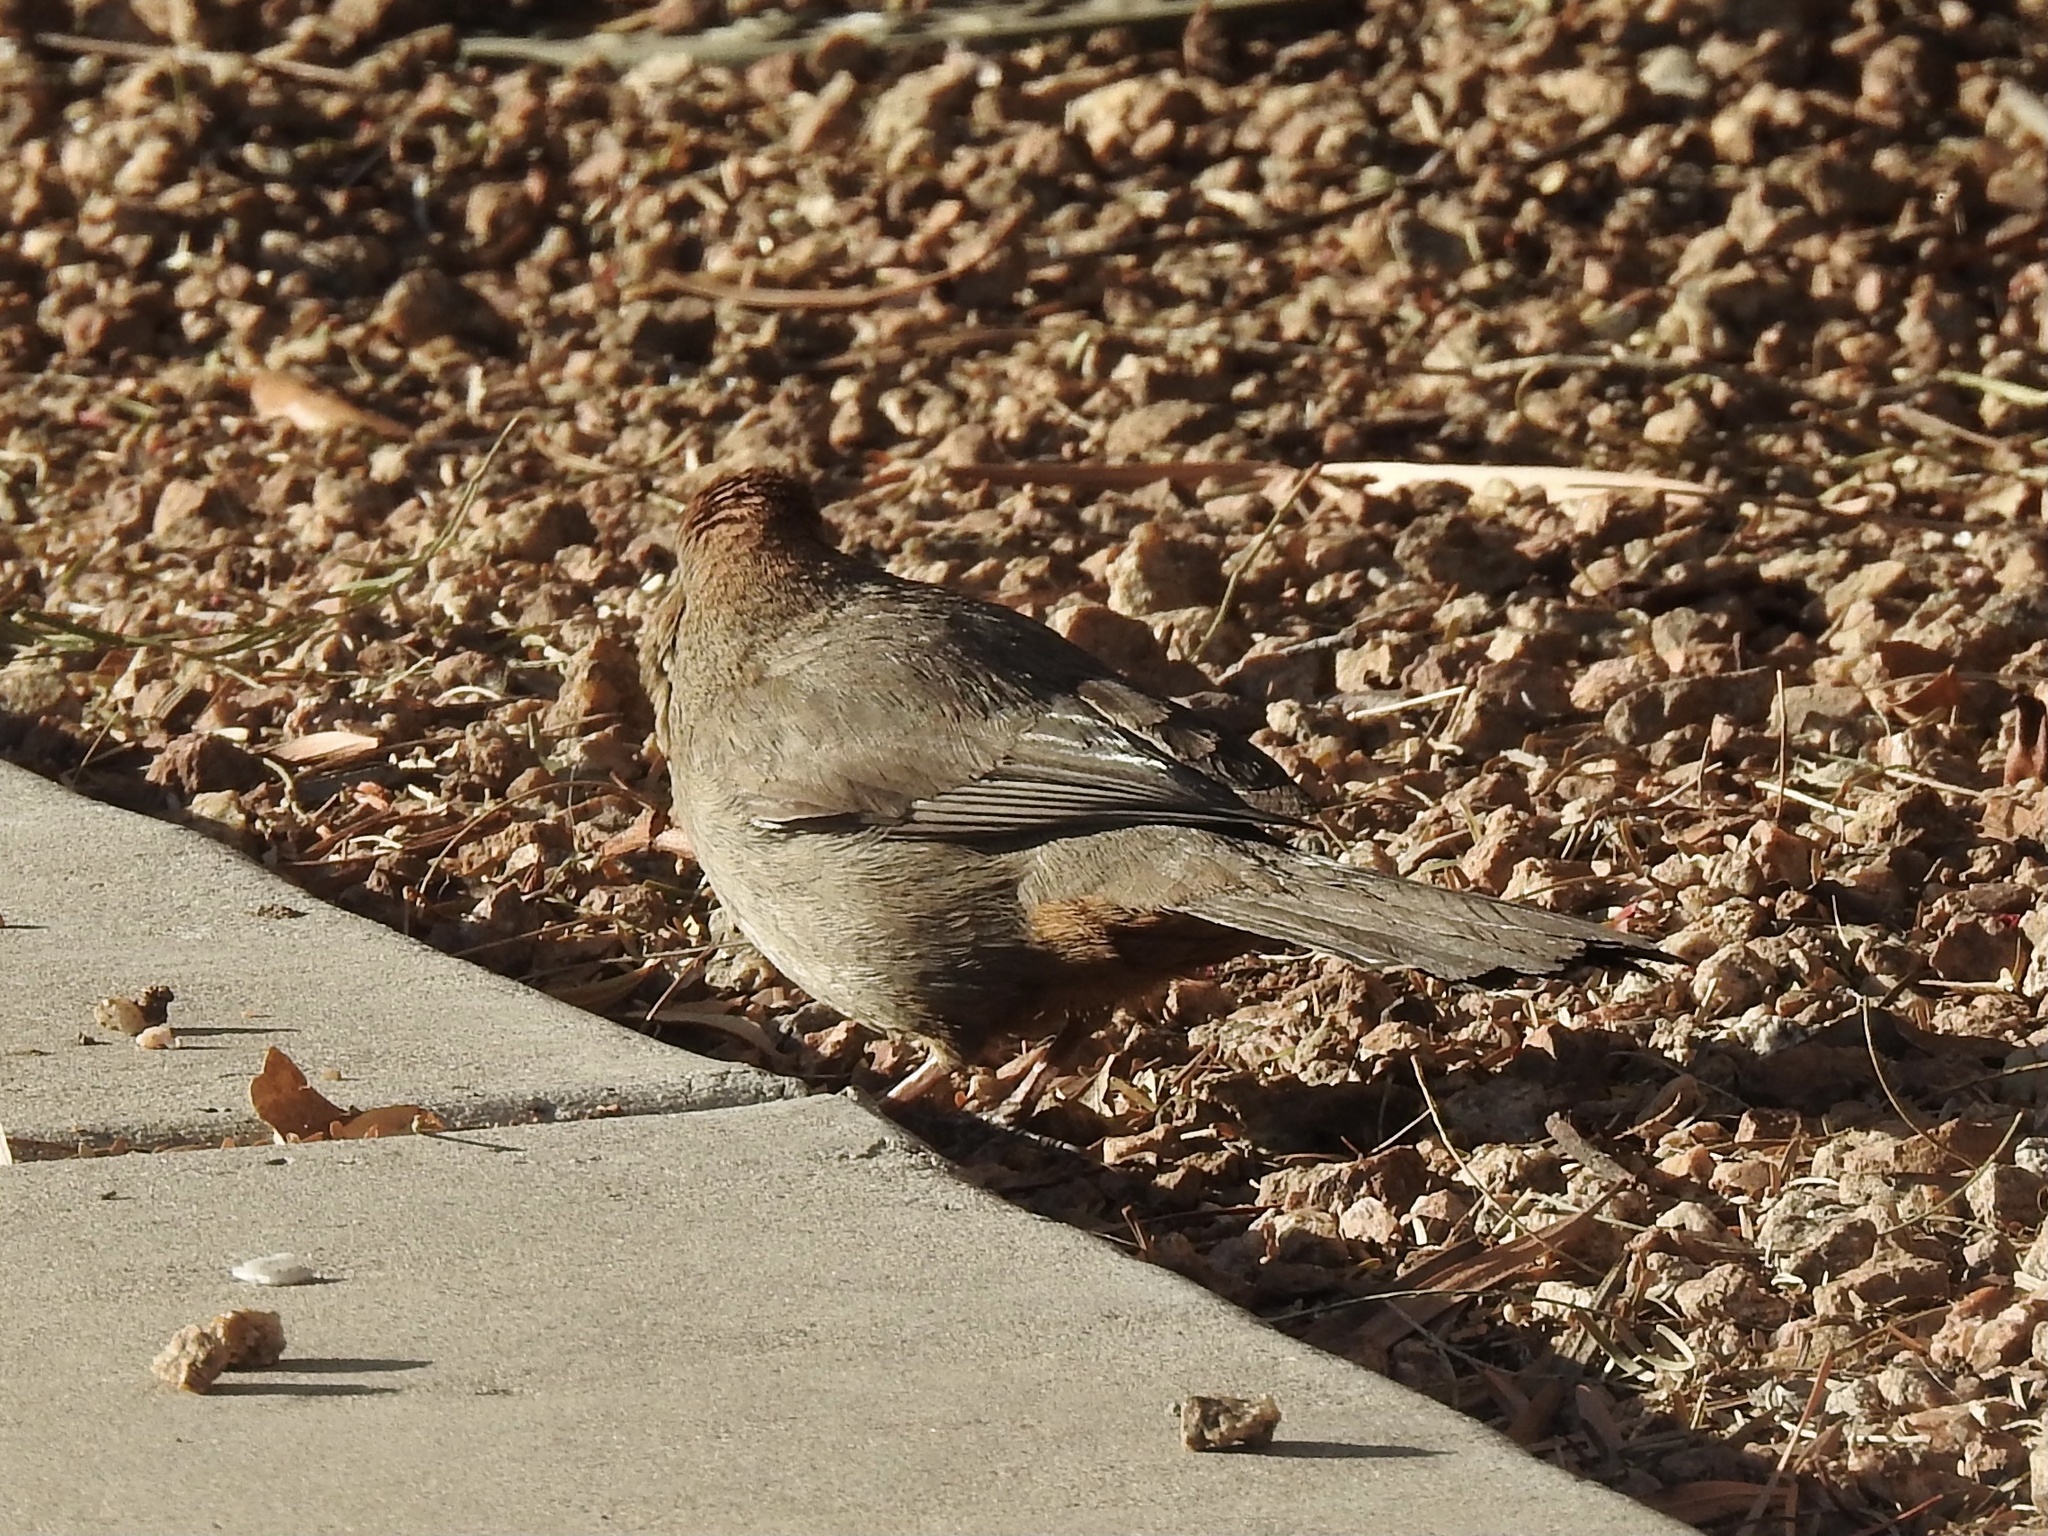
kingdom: Animalia
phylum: Chordata
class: Aves
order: Passeriformes
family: Passerellidae
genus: Melozone
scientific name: Melozone fusca
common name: Canyon towhee
